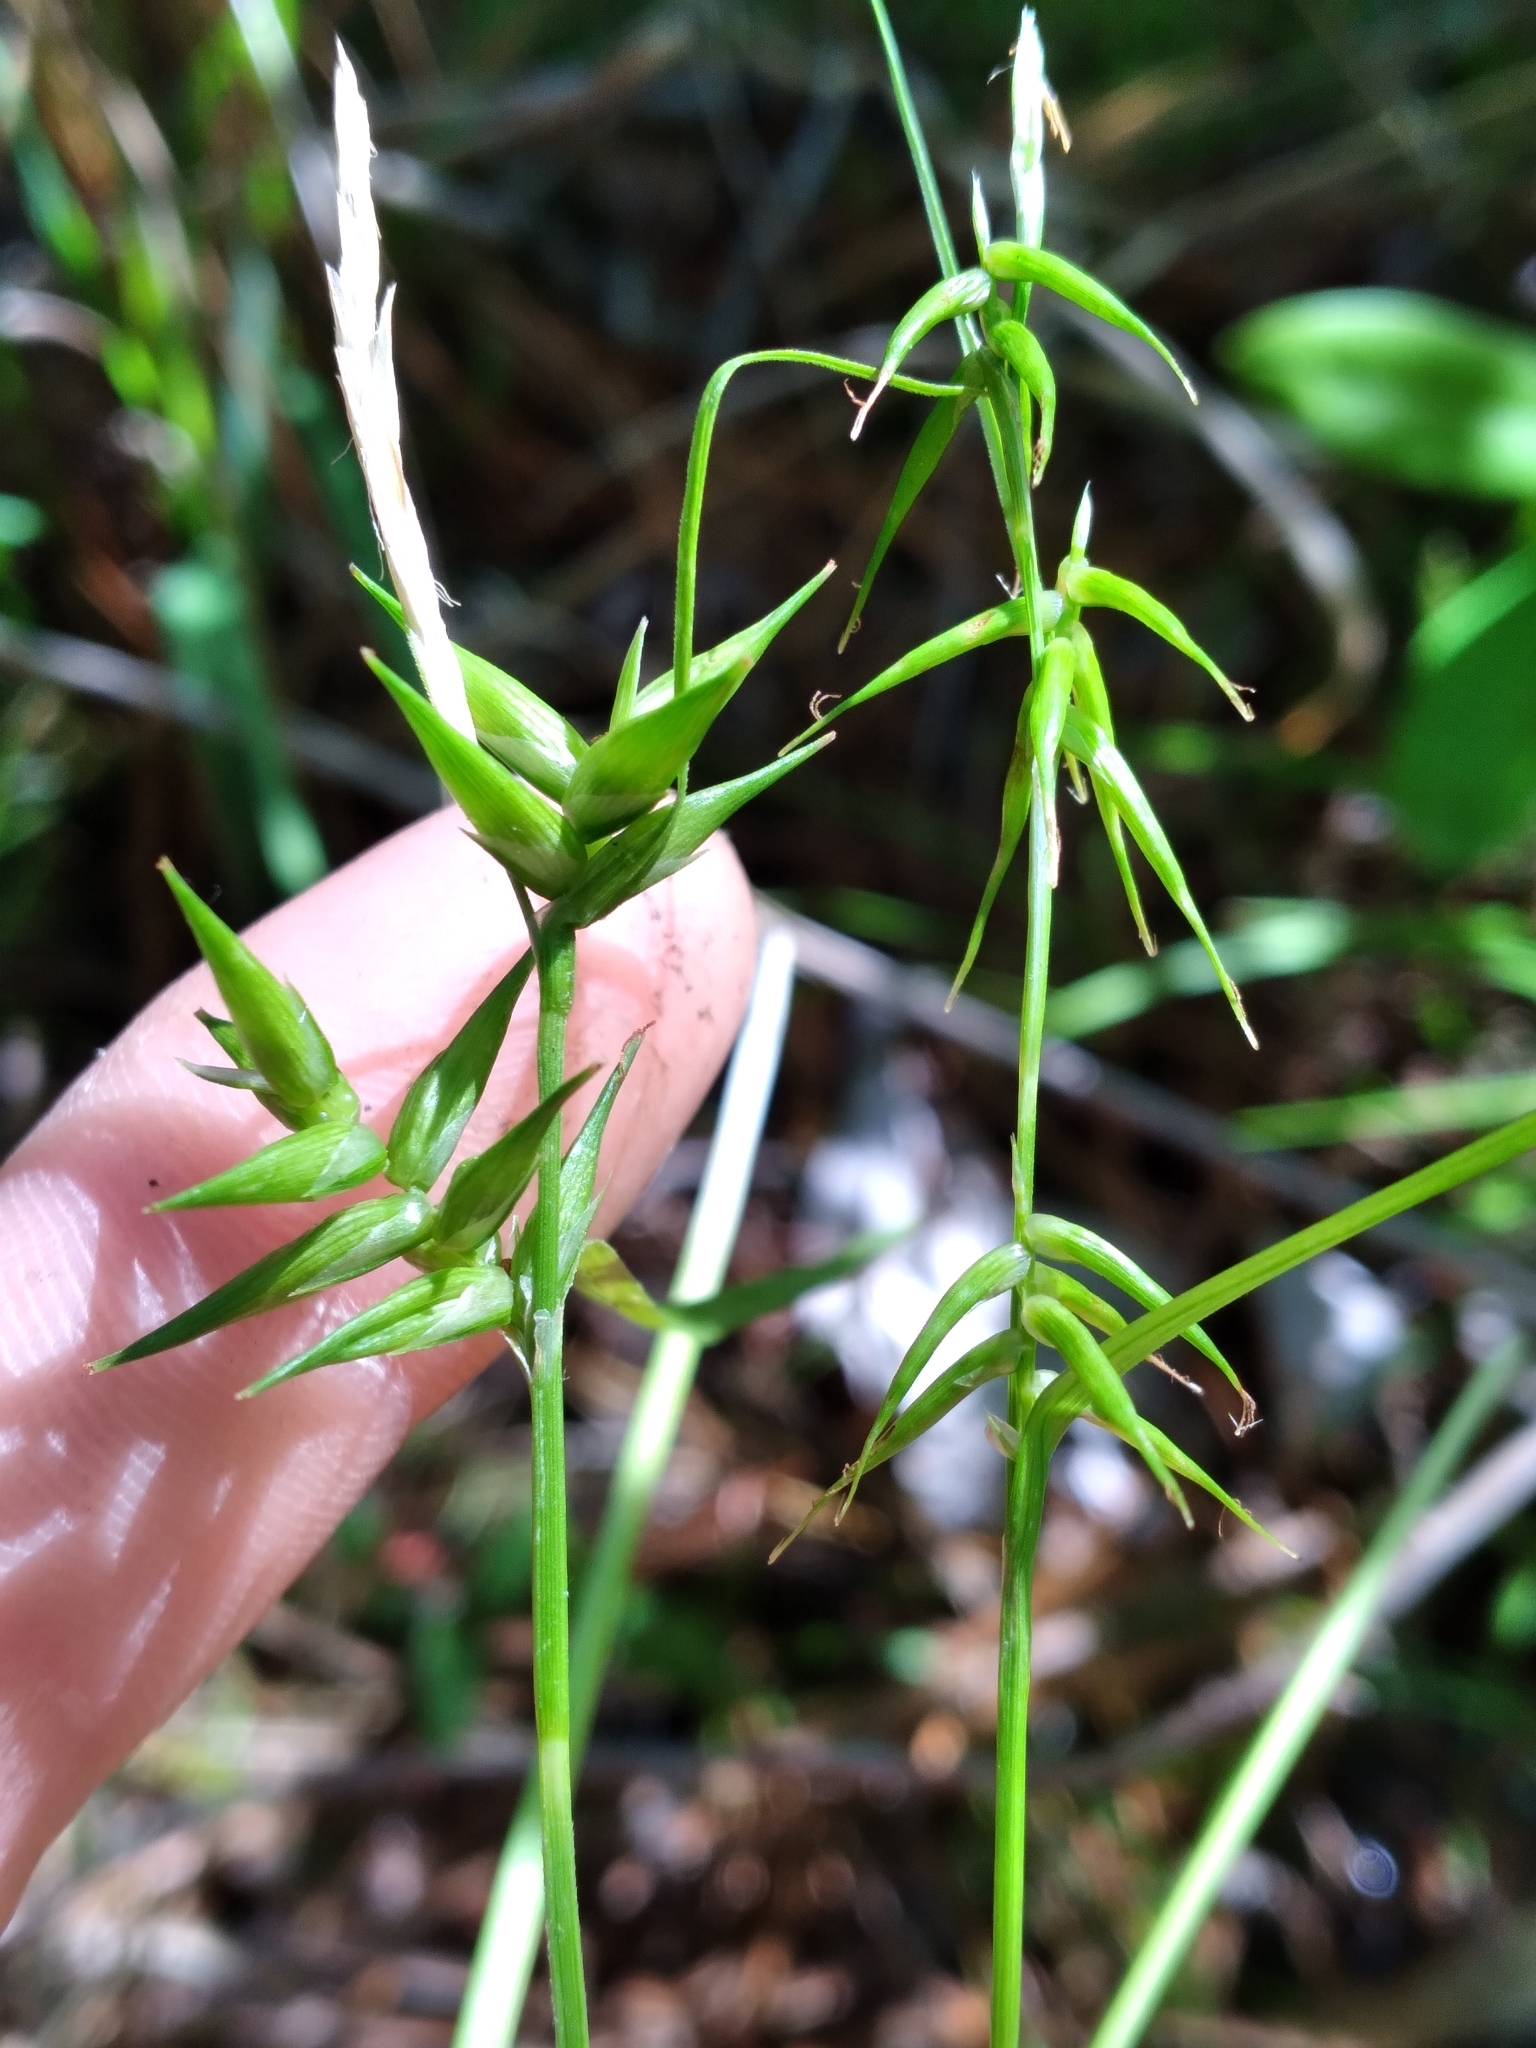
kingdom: Plantae
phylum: Tracheophyta
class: Liliopsida
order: Poales
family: Cyperaceae
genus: Carex
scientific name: Carex collinsii
